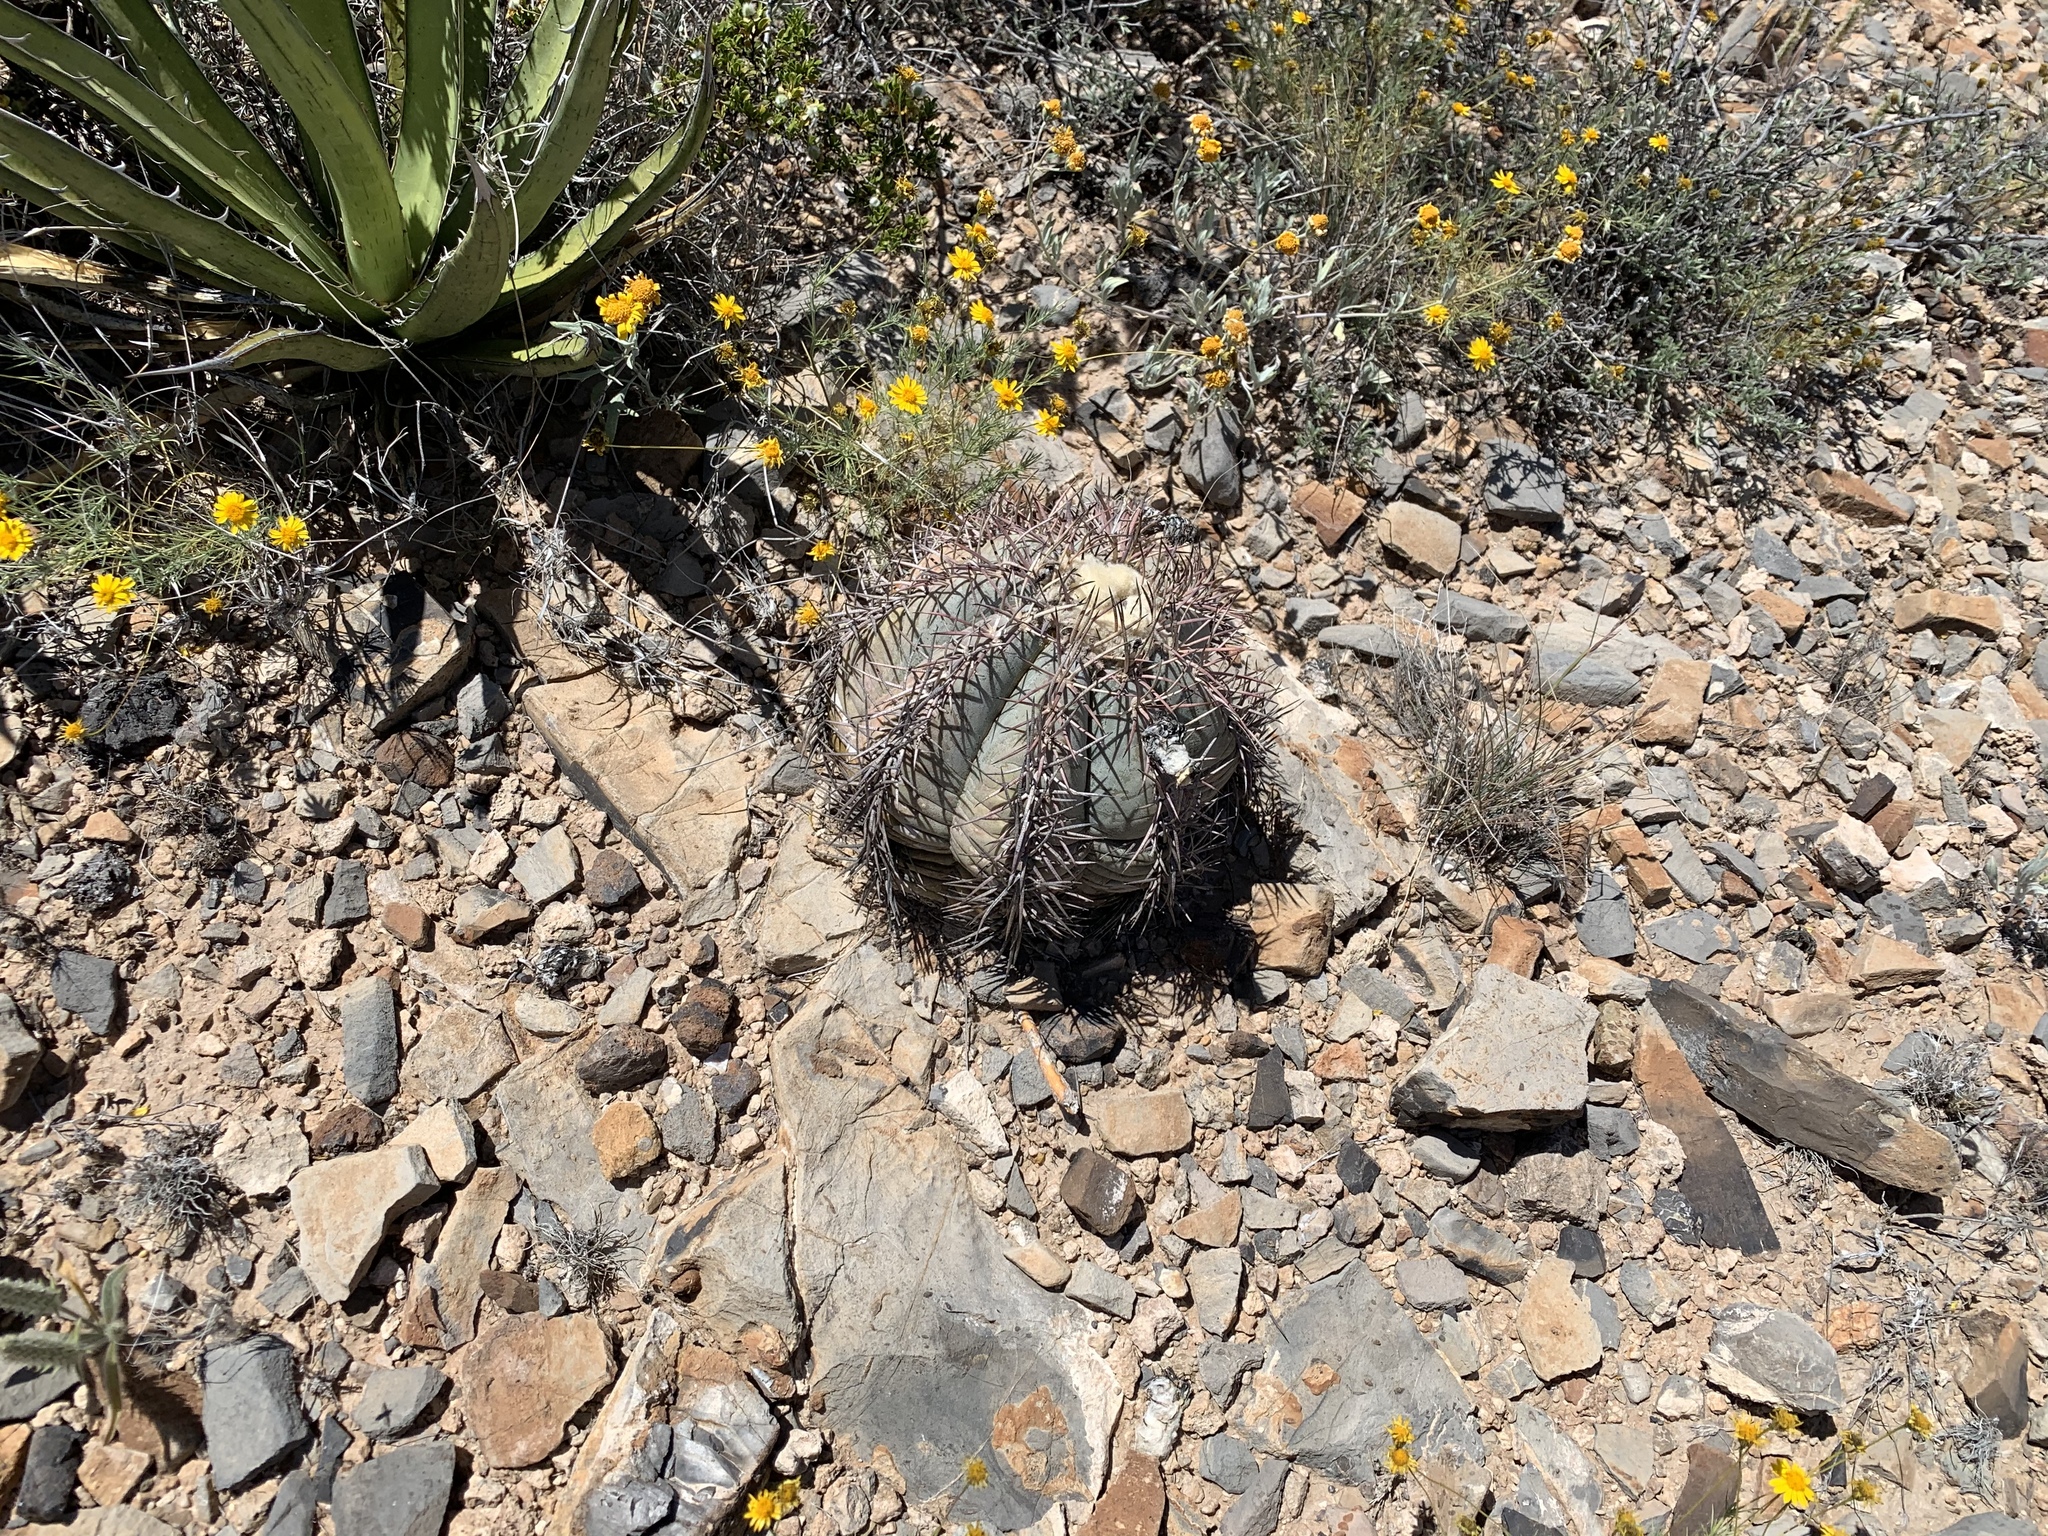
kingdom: Plantae
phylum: Tracheophyta
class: Magnoliopsida
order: Caryophyllales
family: Cactaceae
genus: Echinocactus
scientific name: Echinocactus horizonthalonius
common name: Devilshead
